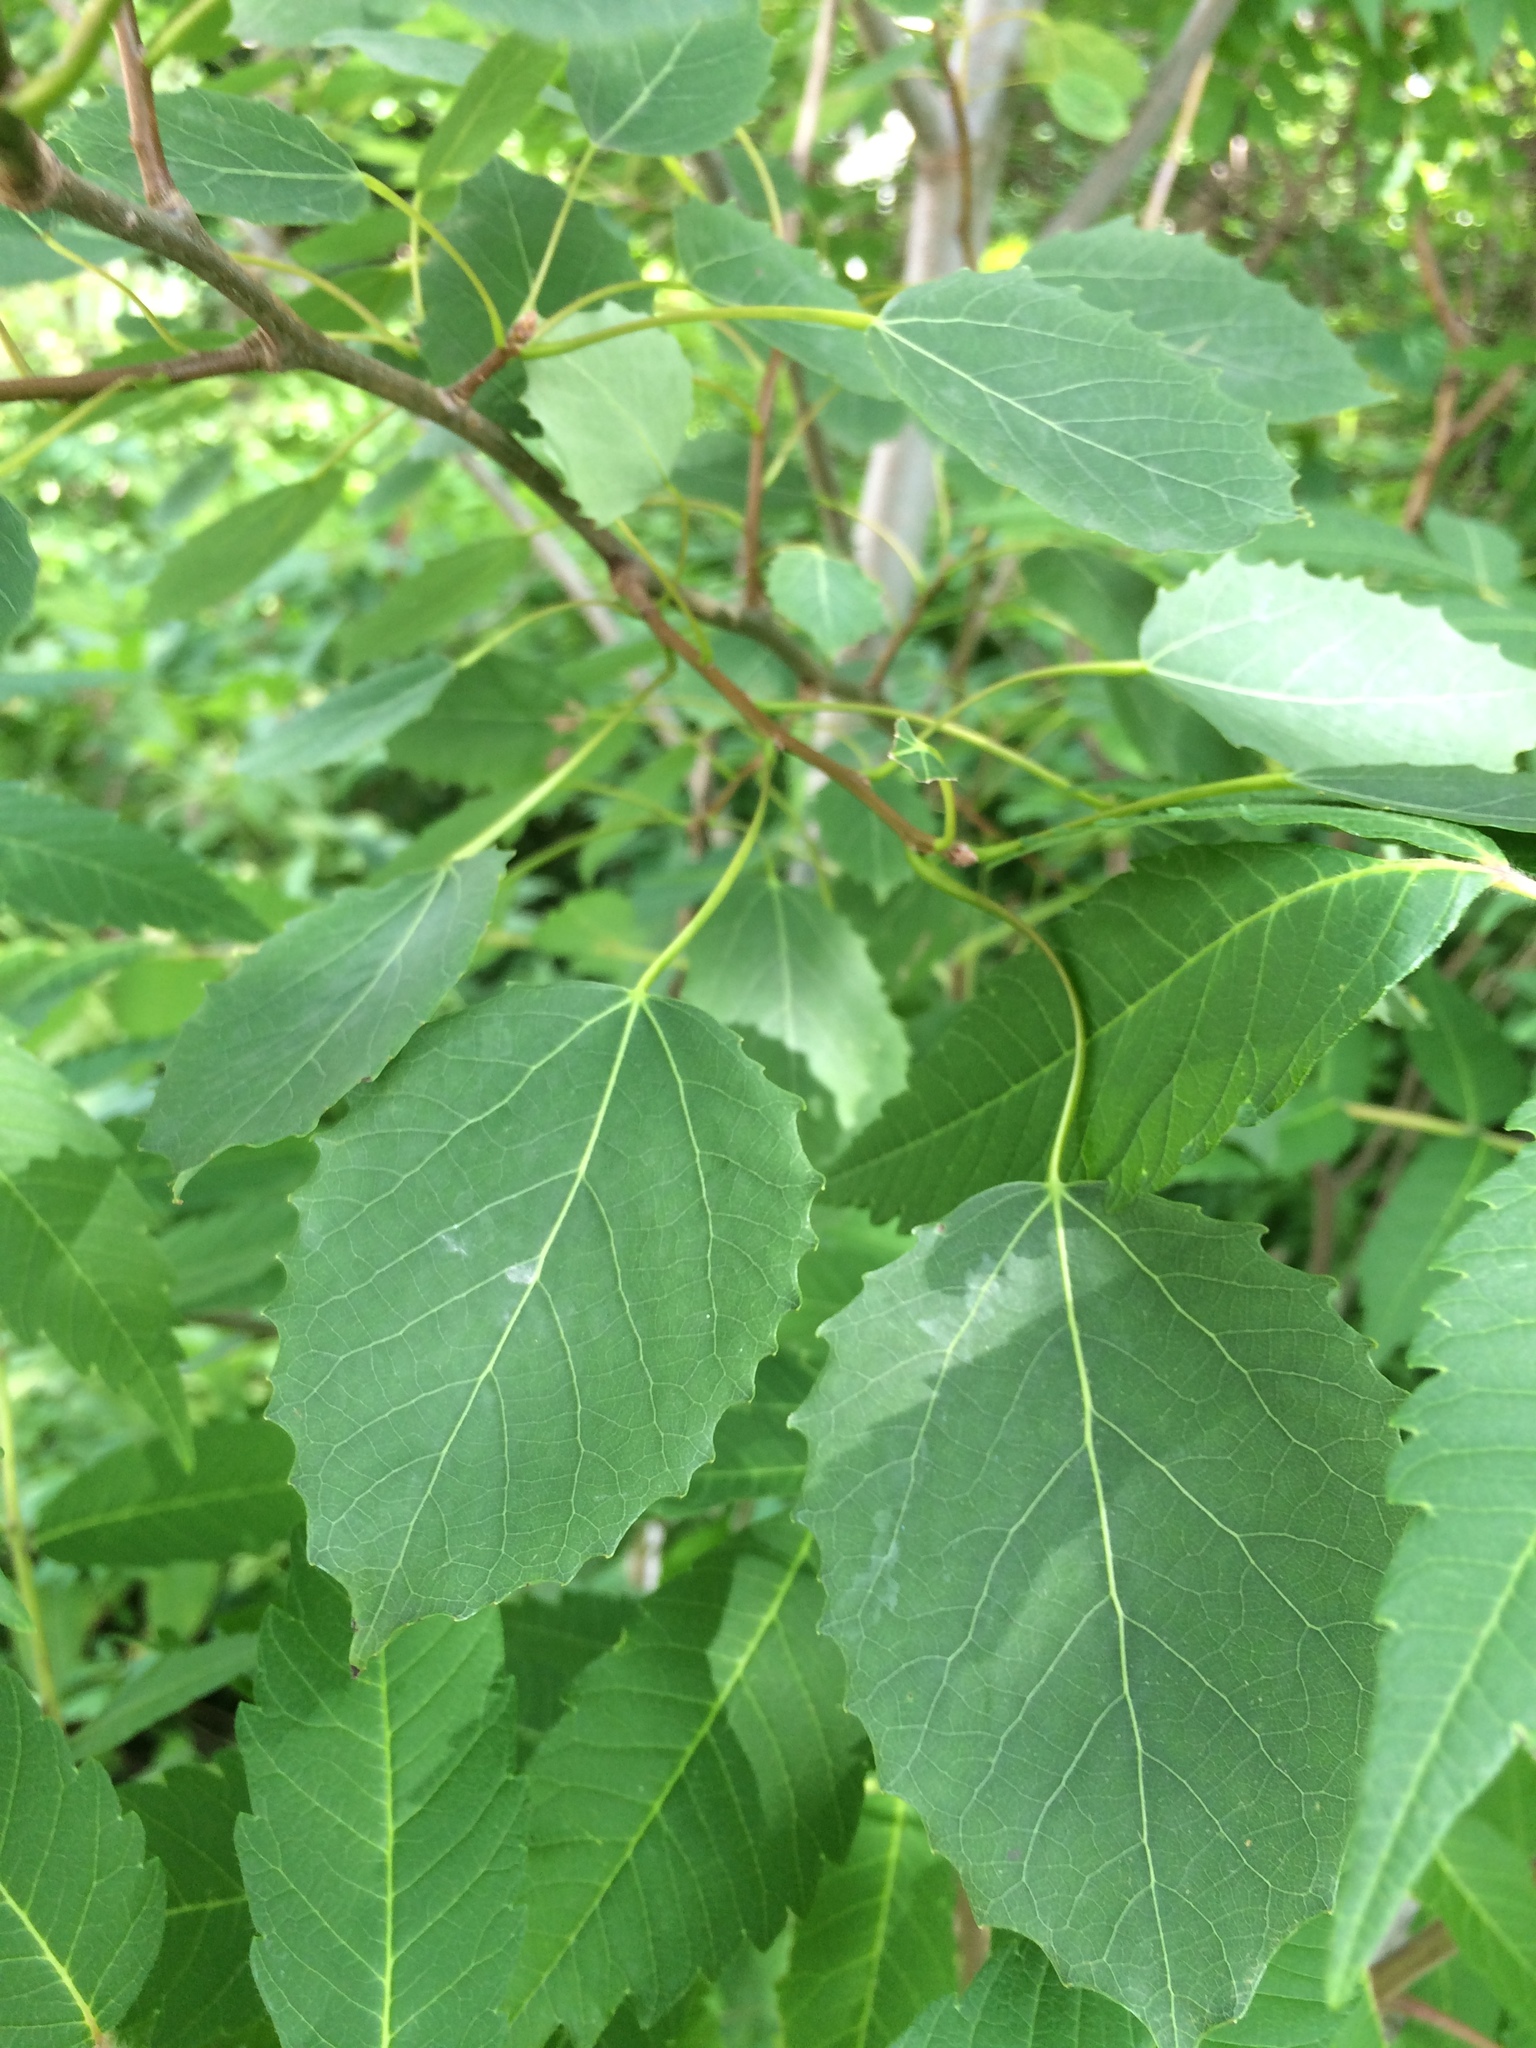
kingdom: Plantae
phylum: Tracheophyta
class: Magnoliopsida
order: Malpighiales
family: Salicaceae
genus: Populus
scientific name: Populus grandidentata
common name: Bigtooth aspen
